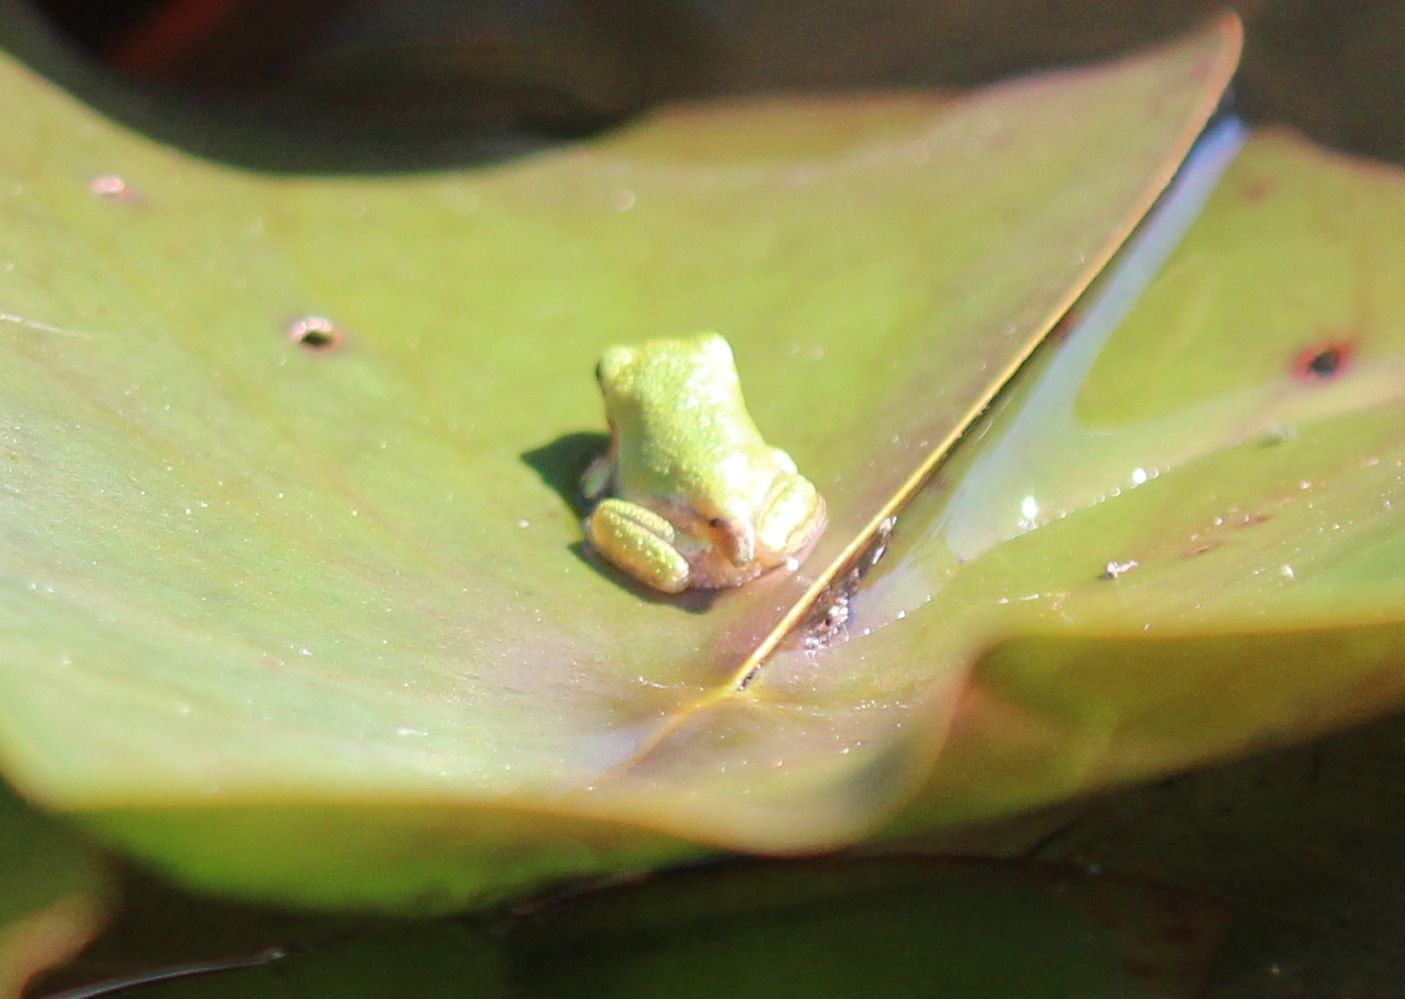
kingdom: Animalia
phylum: Chordata
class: Amphibia
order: Anura
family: Hylidae
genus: Dryophytes
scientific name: Dryophytes versicolor
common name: Gray treefrog
